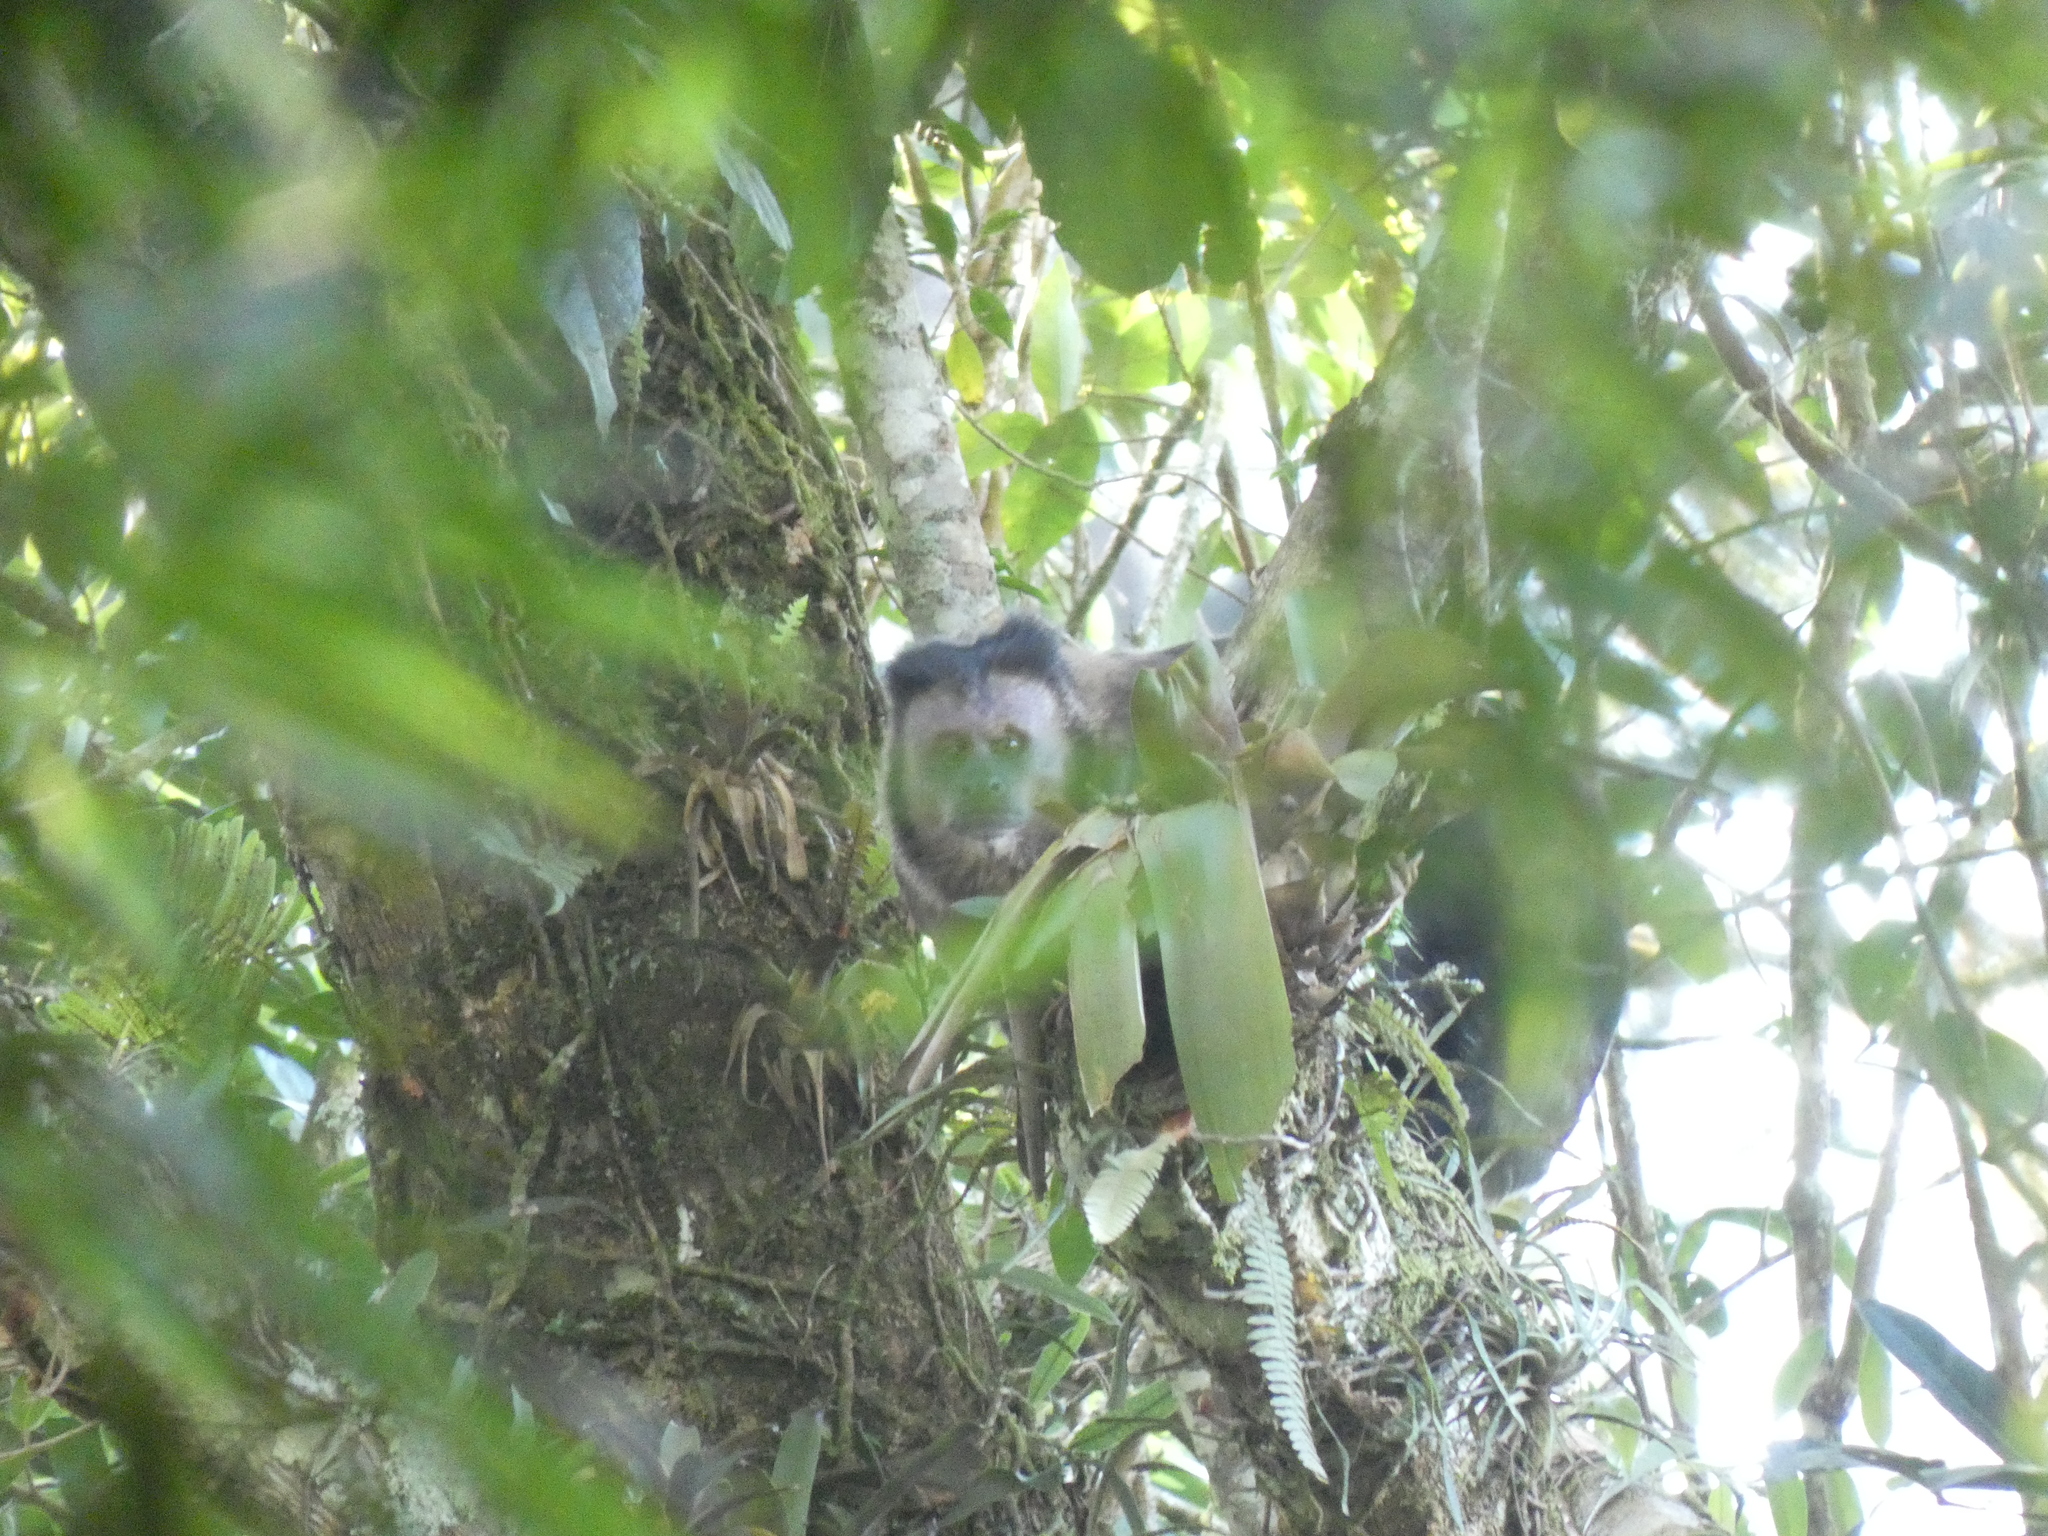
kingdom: Animalia
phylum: Chordata
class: Mammalia
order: Primates
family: Cebidae
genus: Sapajus
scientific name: Sapajus nigritus
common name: Black capuchin
